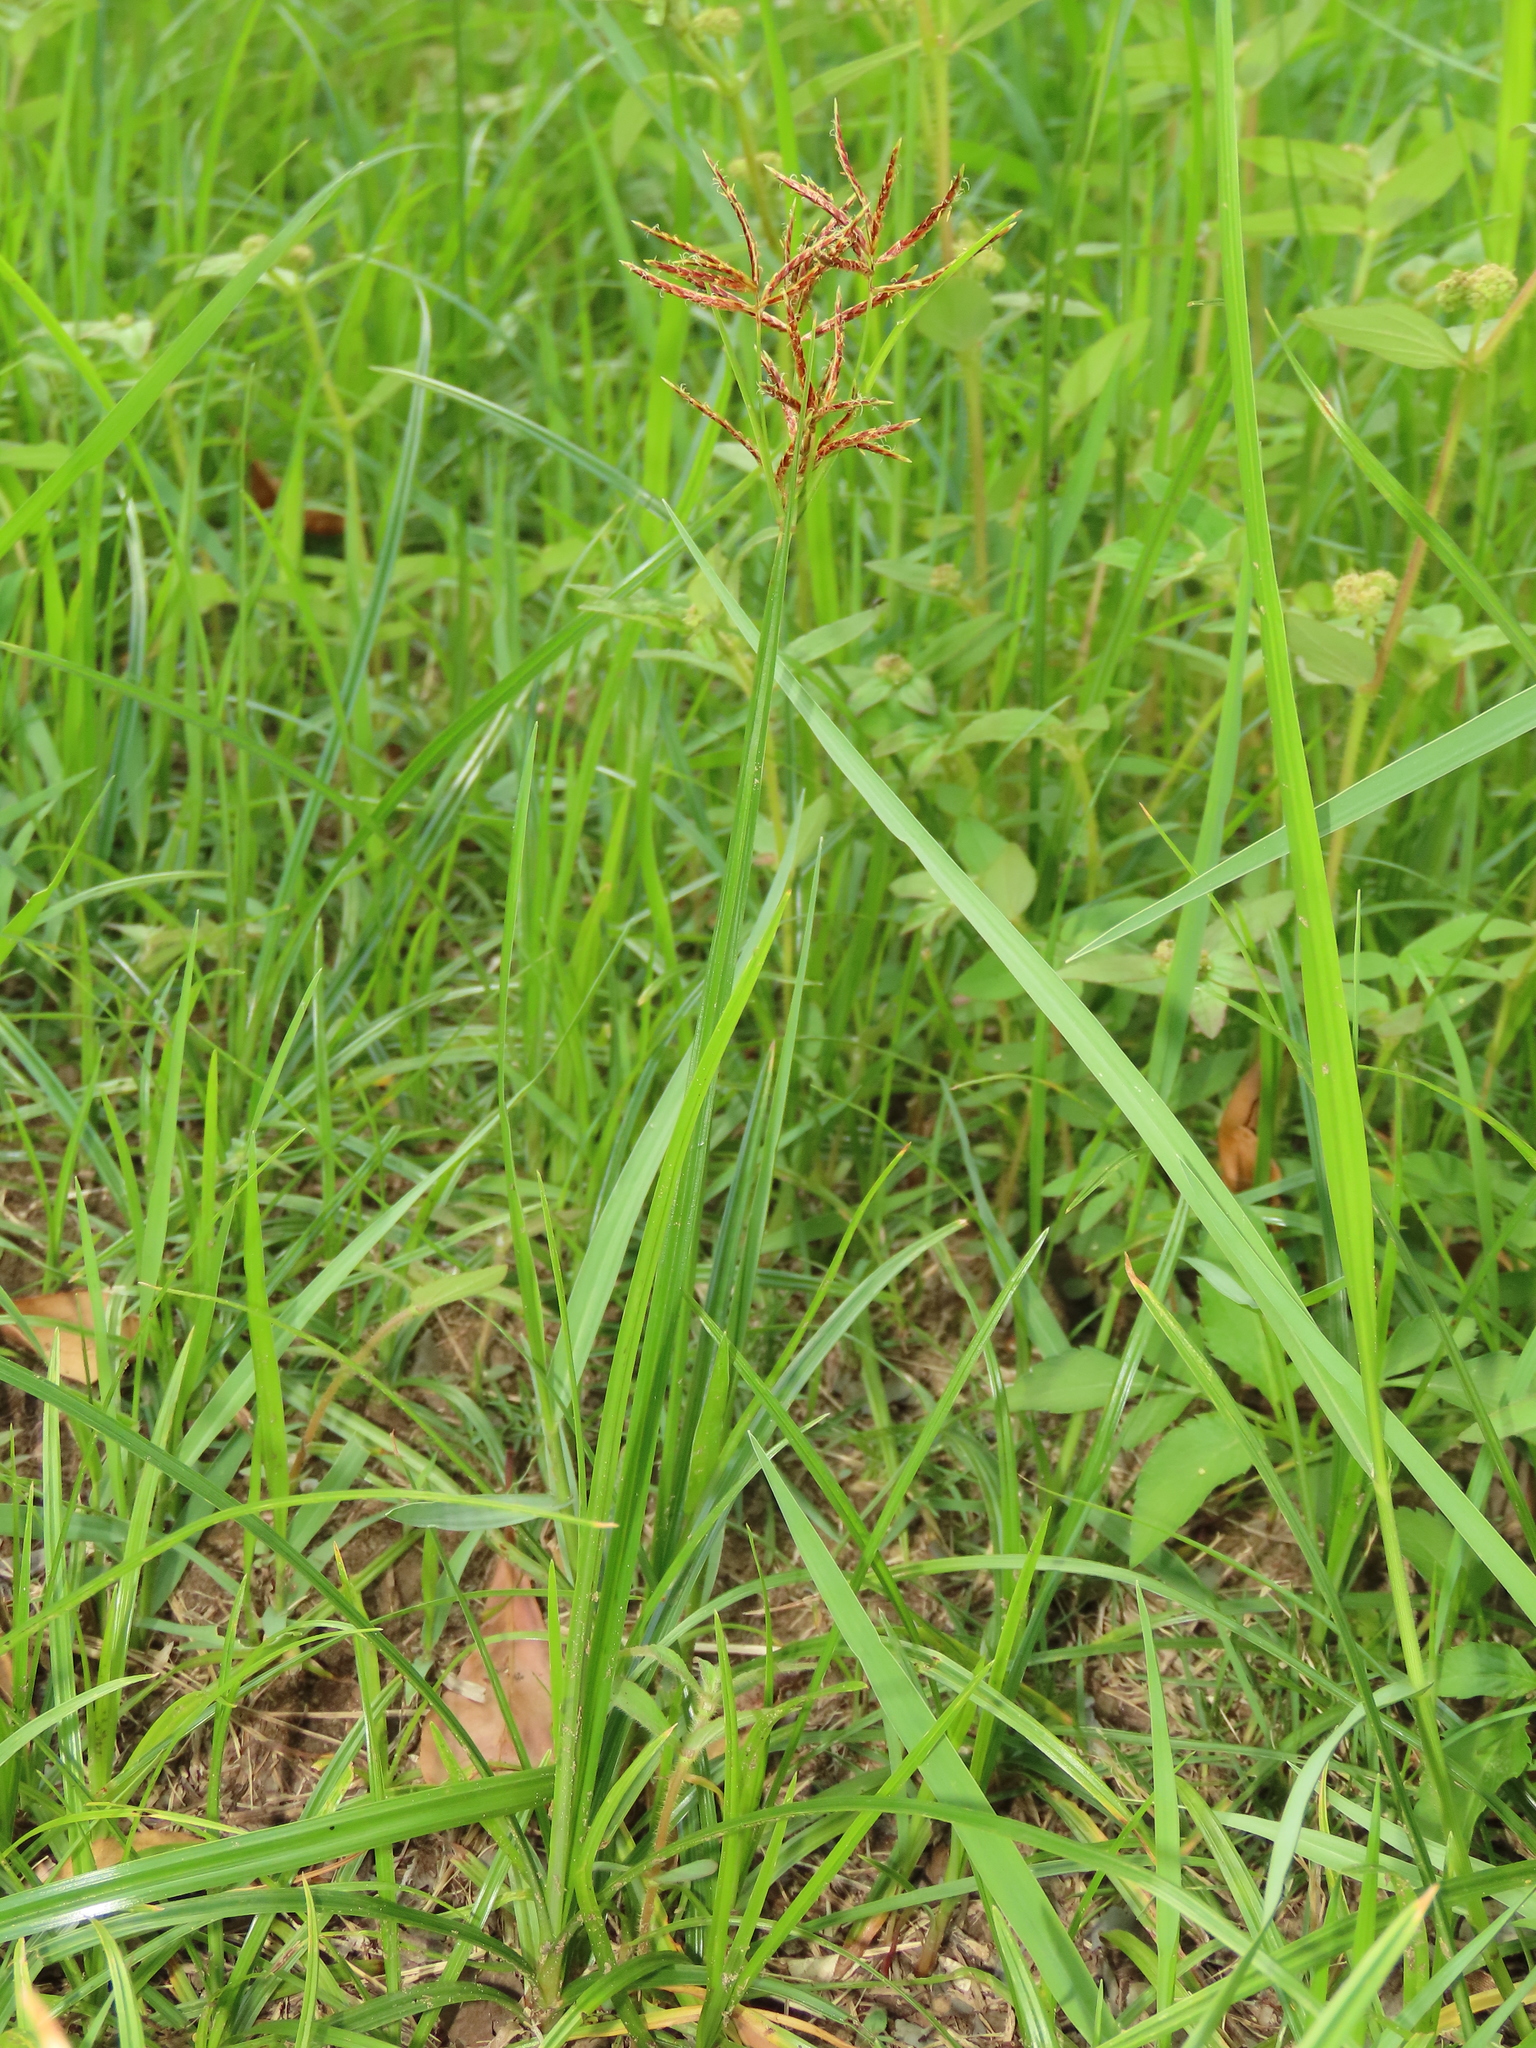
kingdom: Plantae
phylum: Tracheophyta
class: Liliopsida
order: Poales
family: Cyperaceae
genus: Cyperus
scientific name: Cyperus rotundus
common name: Nutgrass
